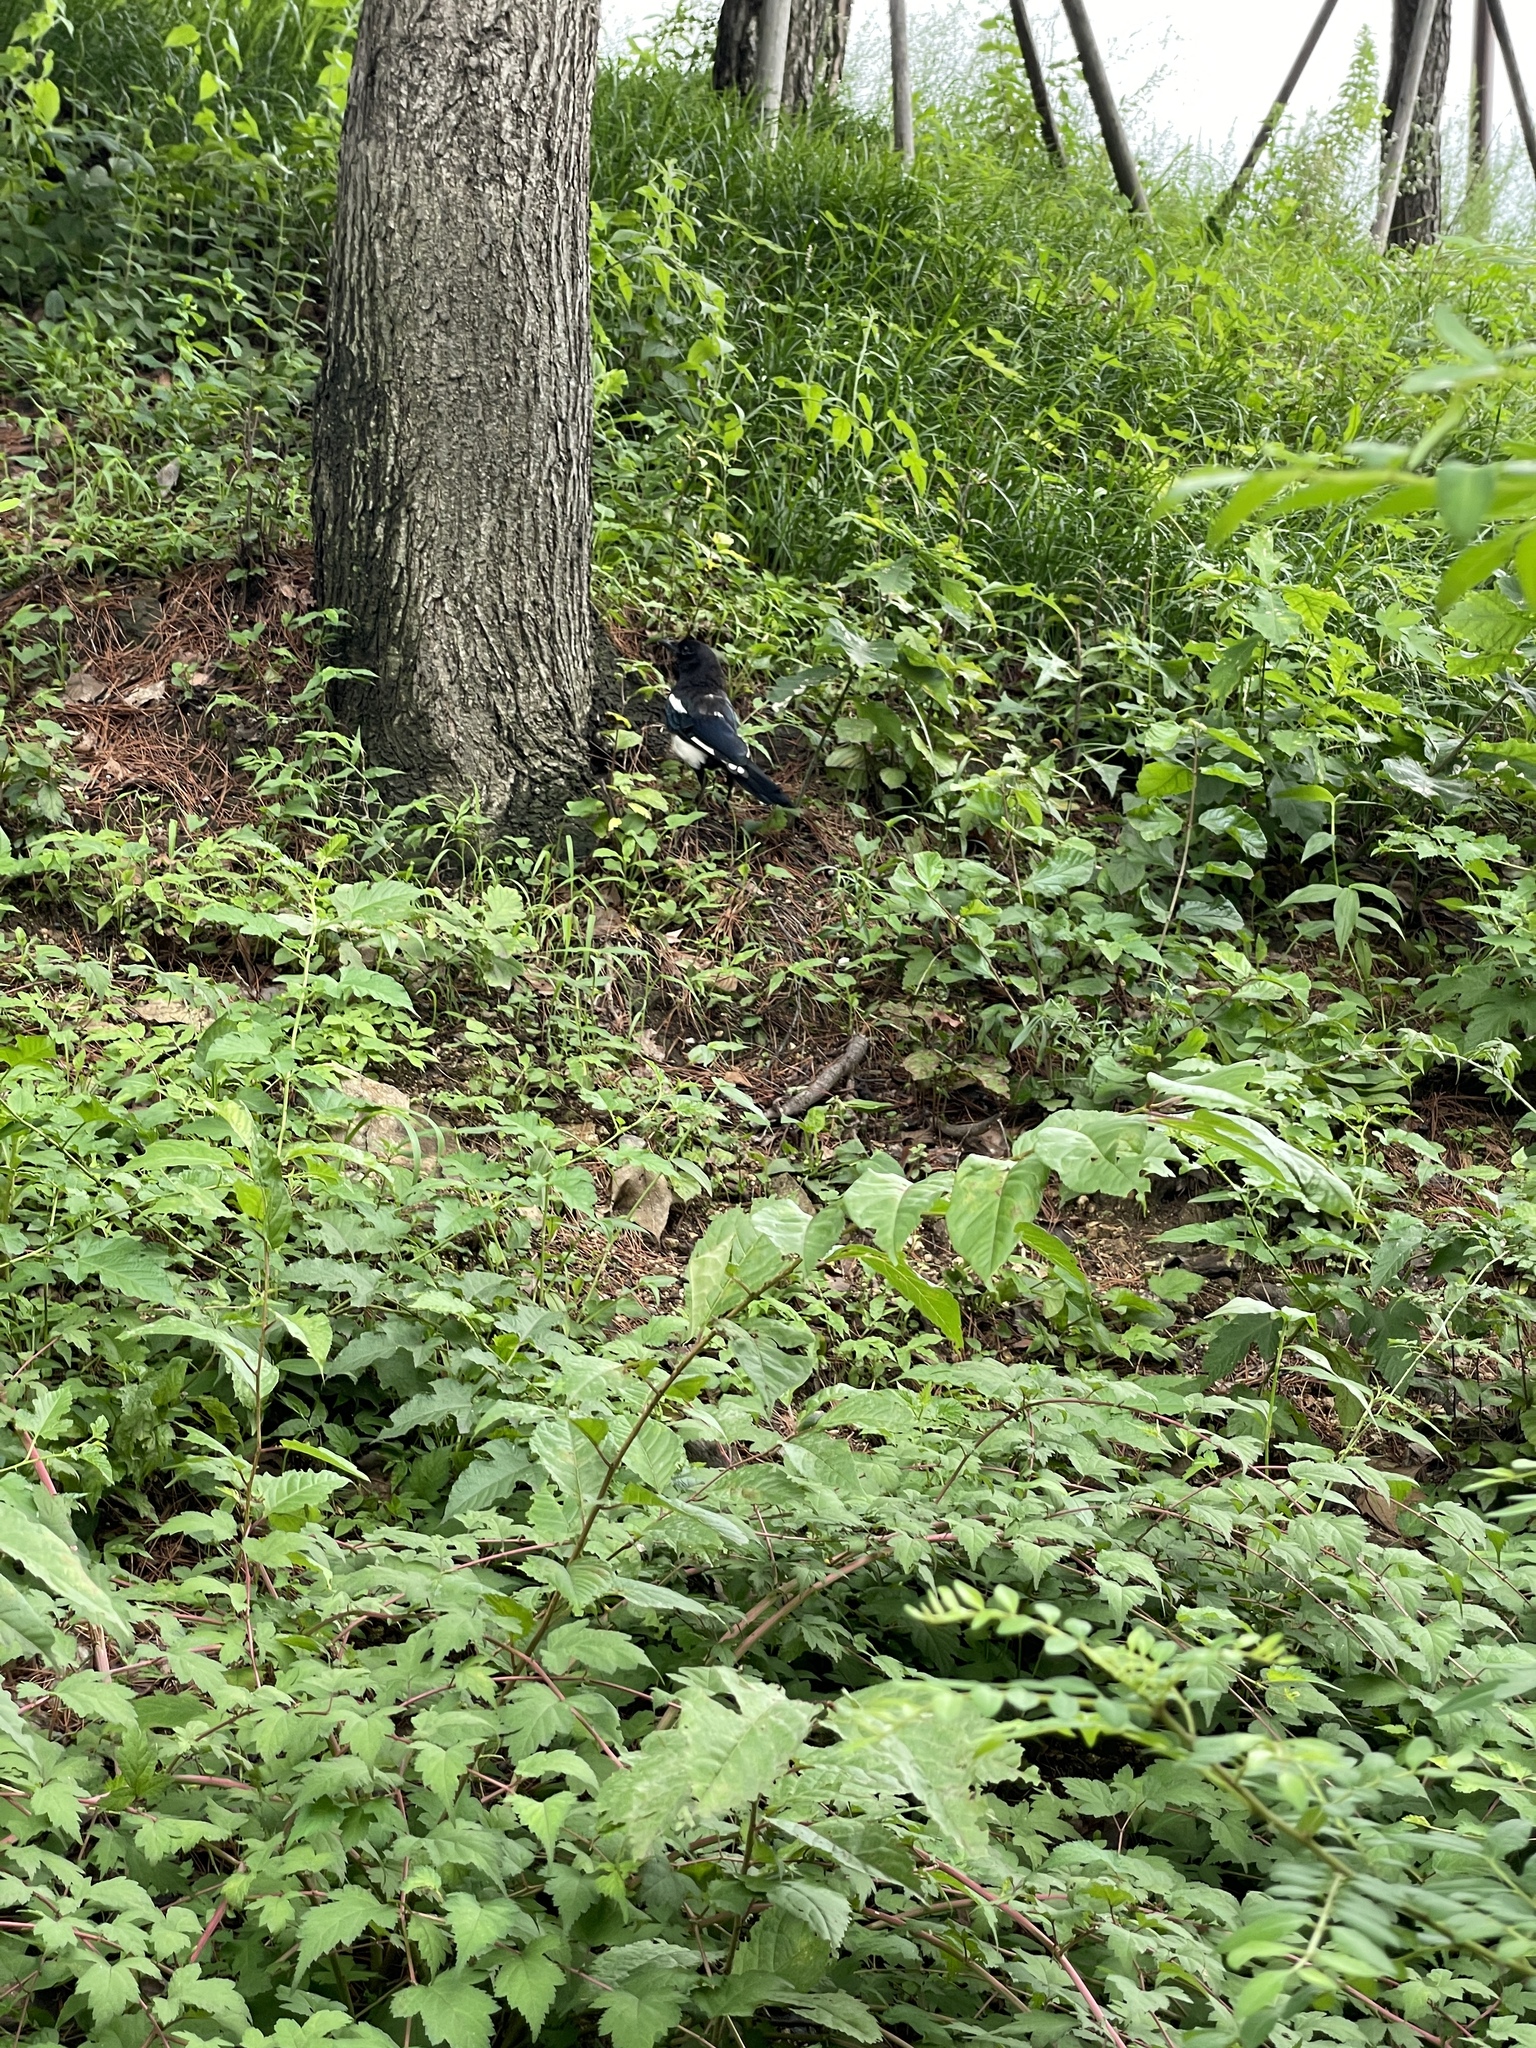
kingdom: Animalia
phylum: Chordata
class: Aves
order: Passeriformes
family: Corvidae
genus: Pica
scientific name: Pica serica
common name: Oriental magpie
